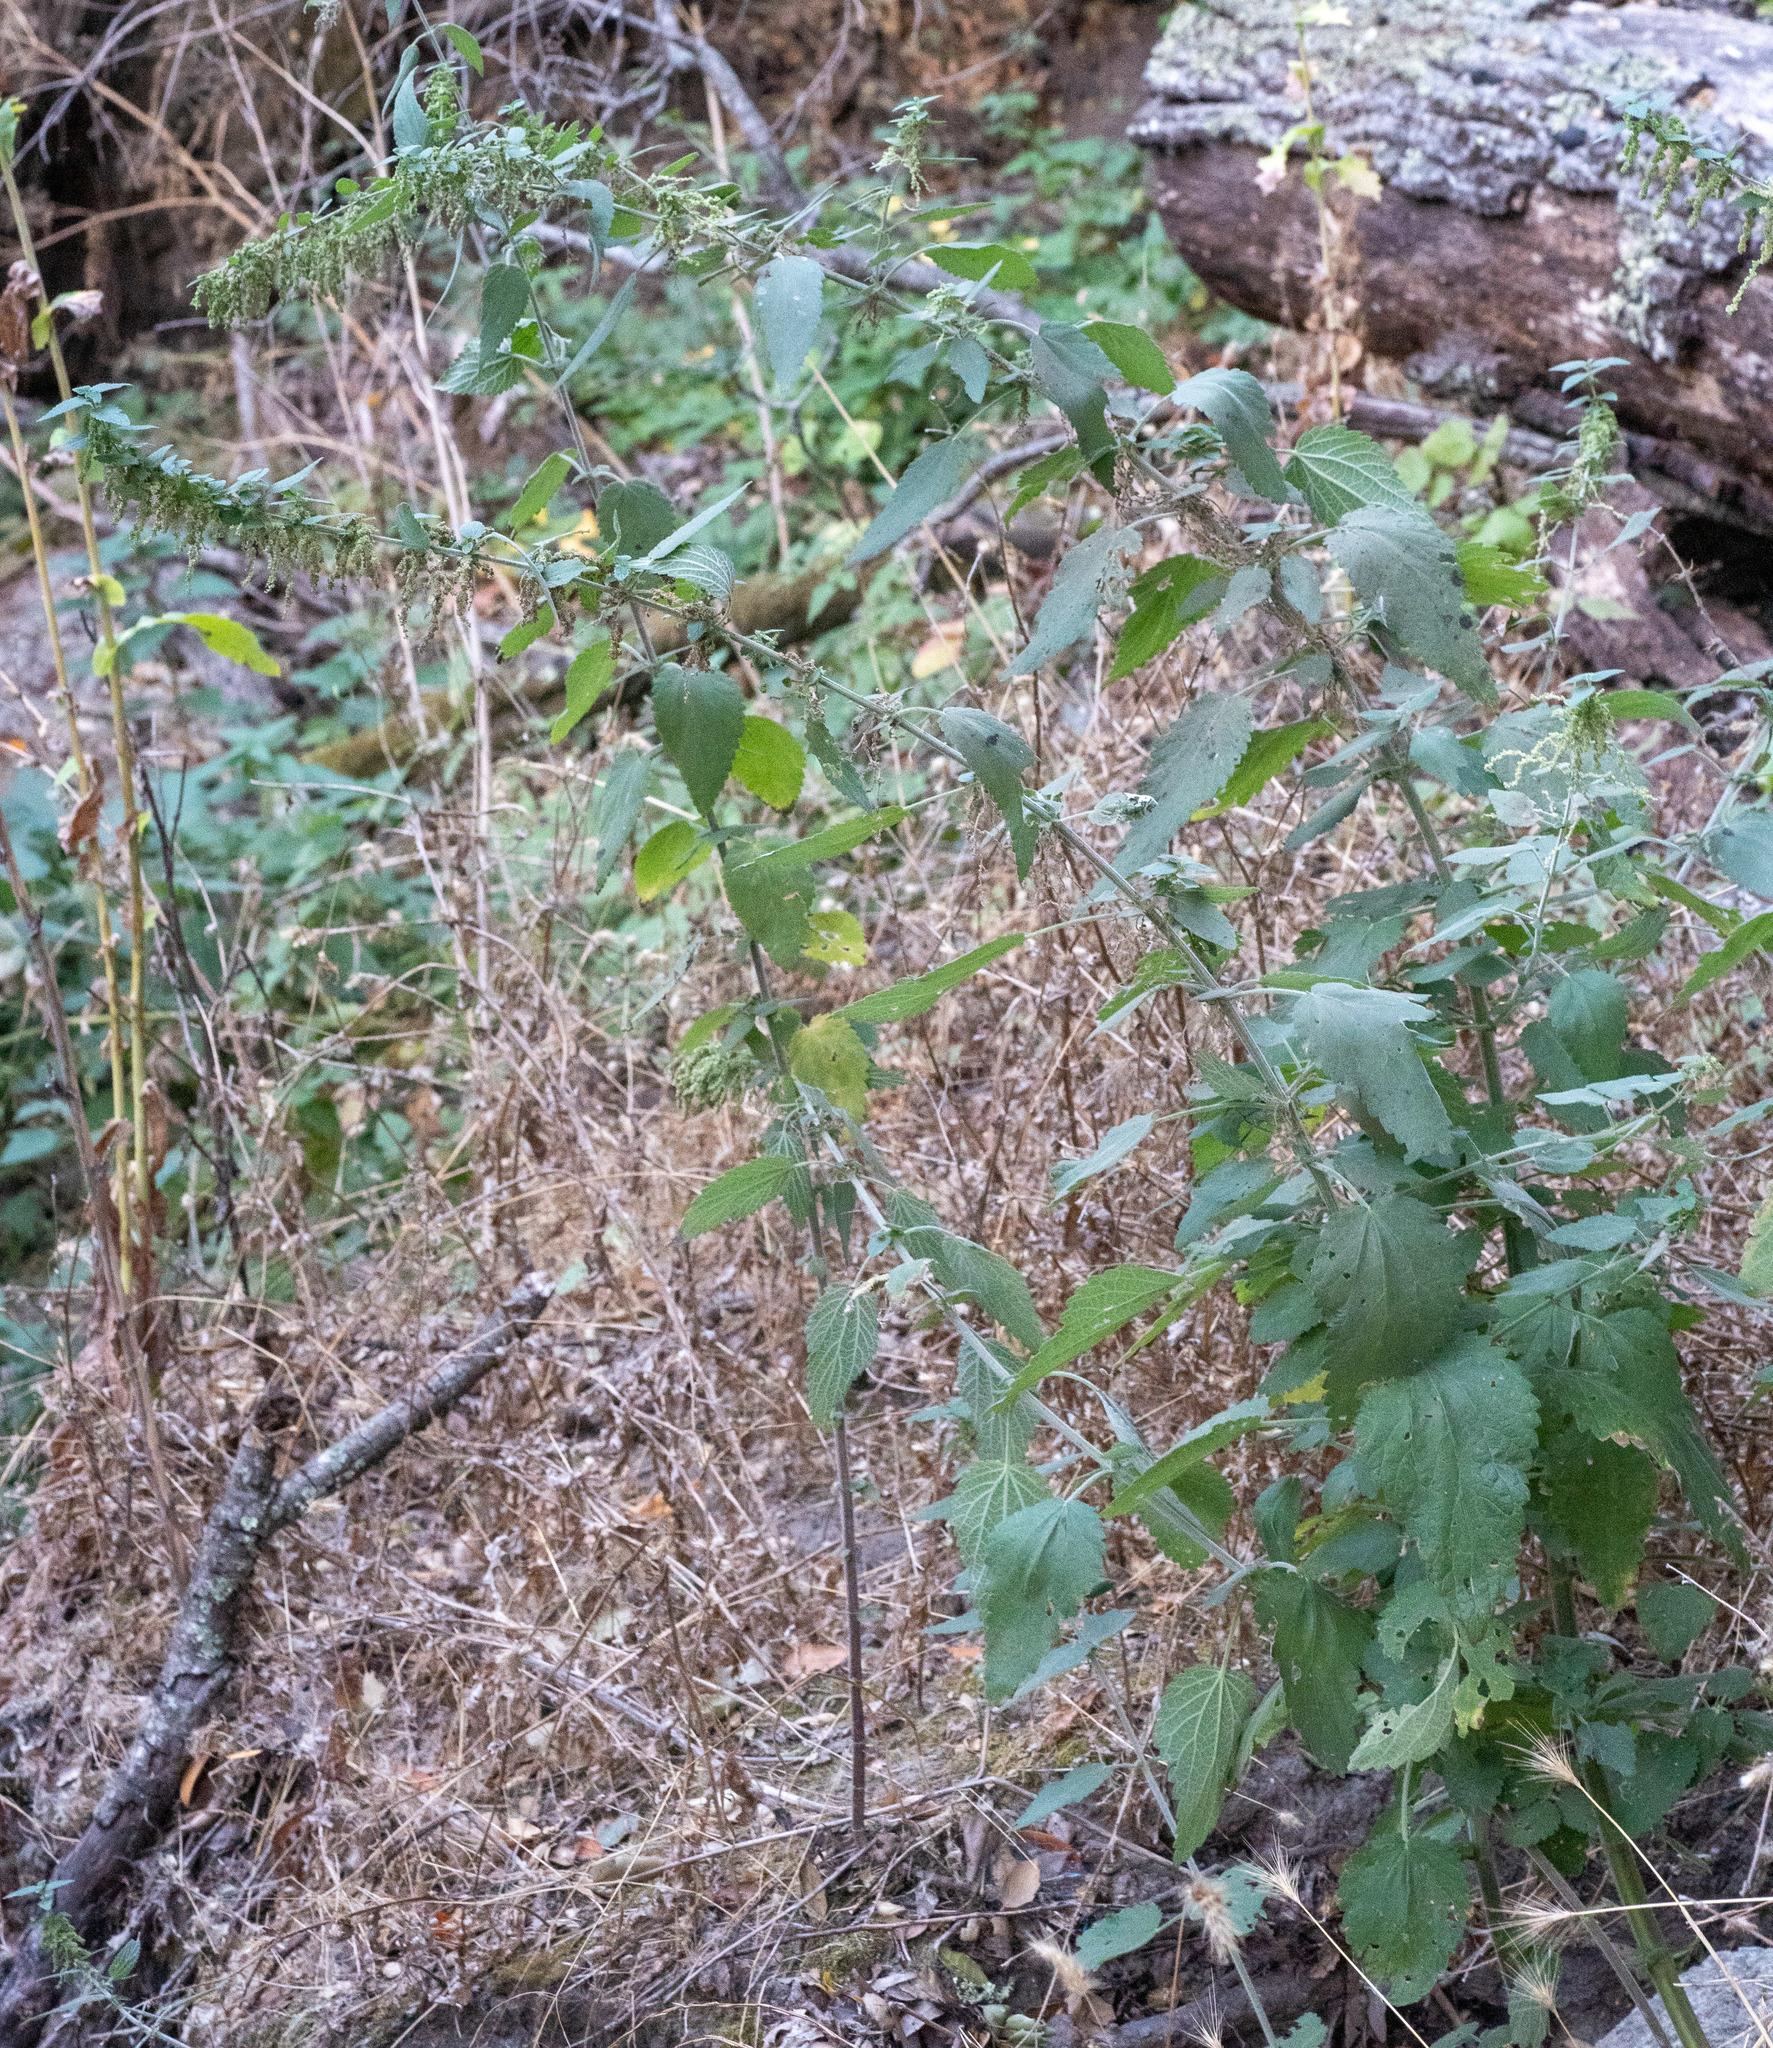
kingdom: Plantae
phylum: Tracheophyta
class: Magnoliopsida
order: Rosales
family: Urticaceae
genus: Urtica
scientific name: Urtica dioica
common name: Common nettle
